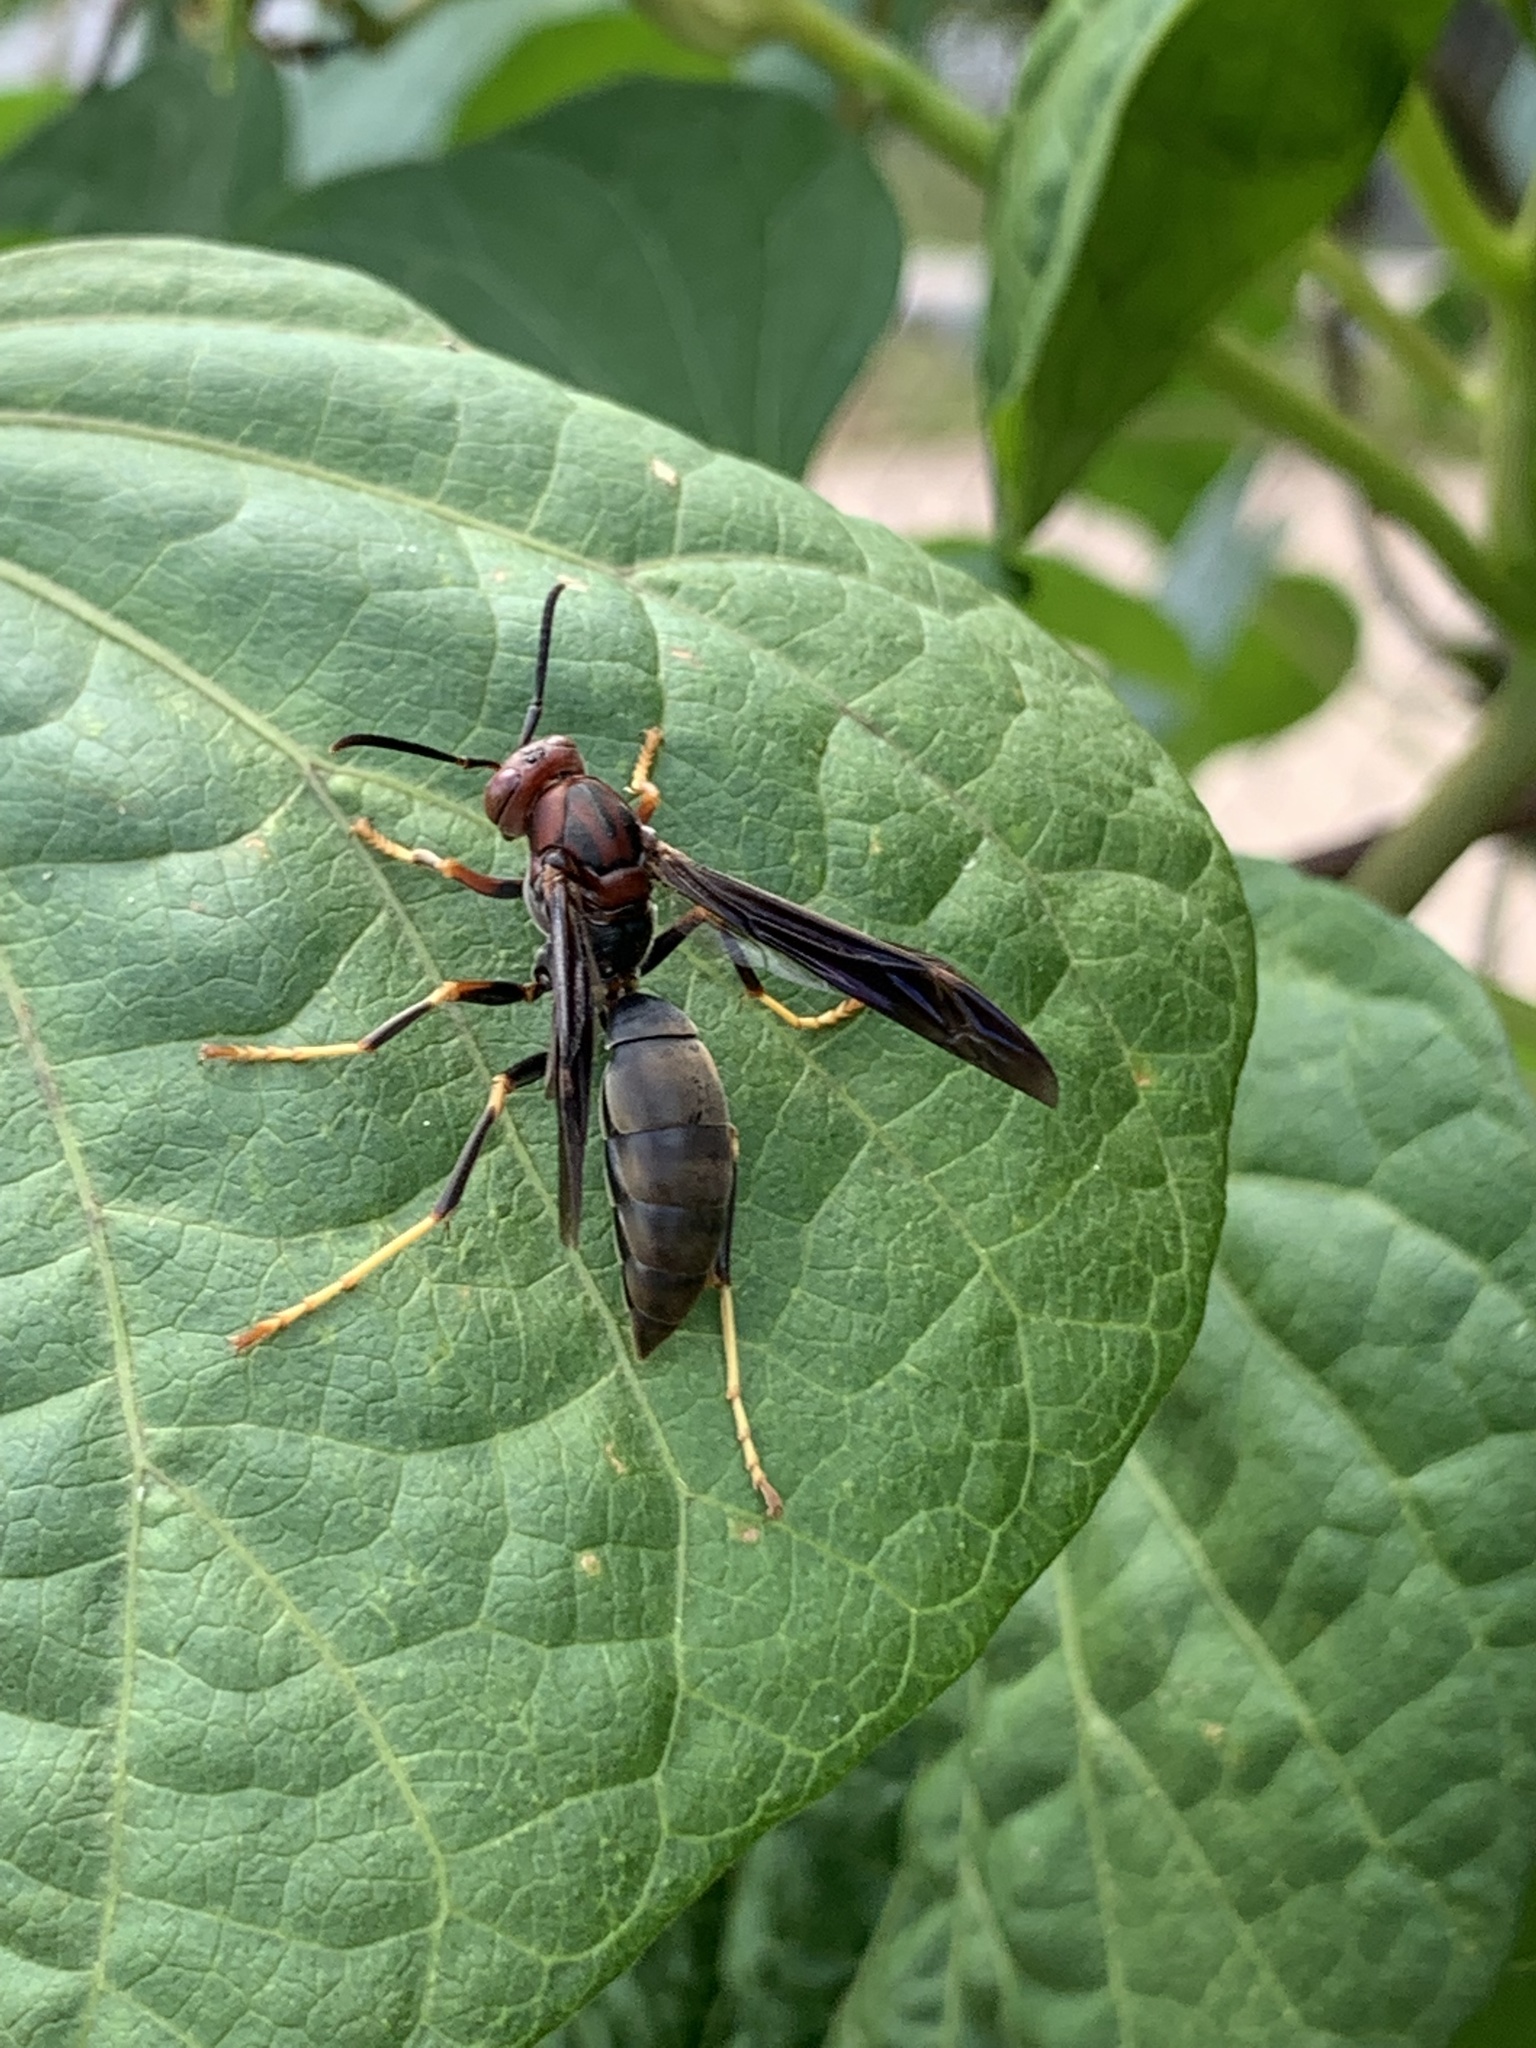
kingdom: Animalia
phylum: Arthropoda
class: Insecta
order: Hymenoptera
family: Eumenidae
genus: Polistes
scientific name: Polistes metricus
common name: Metric paper wasp
